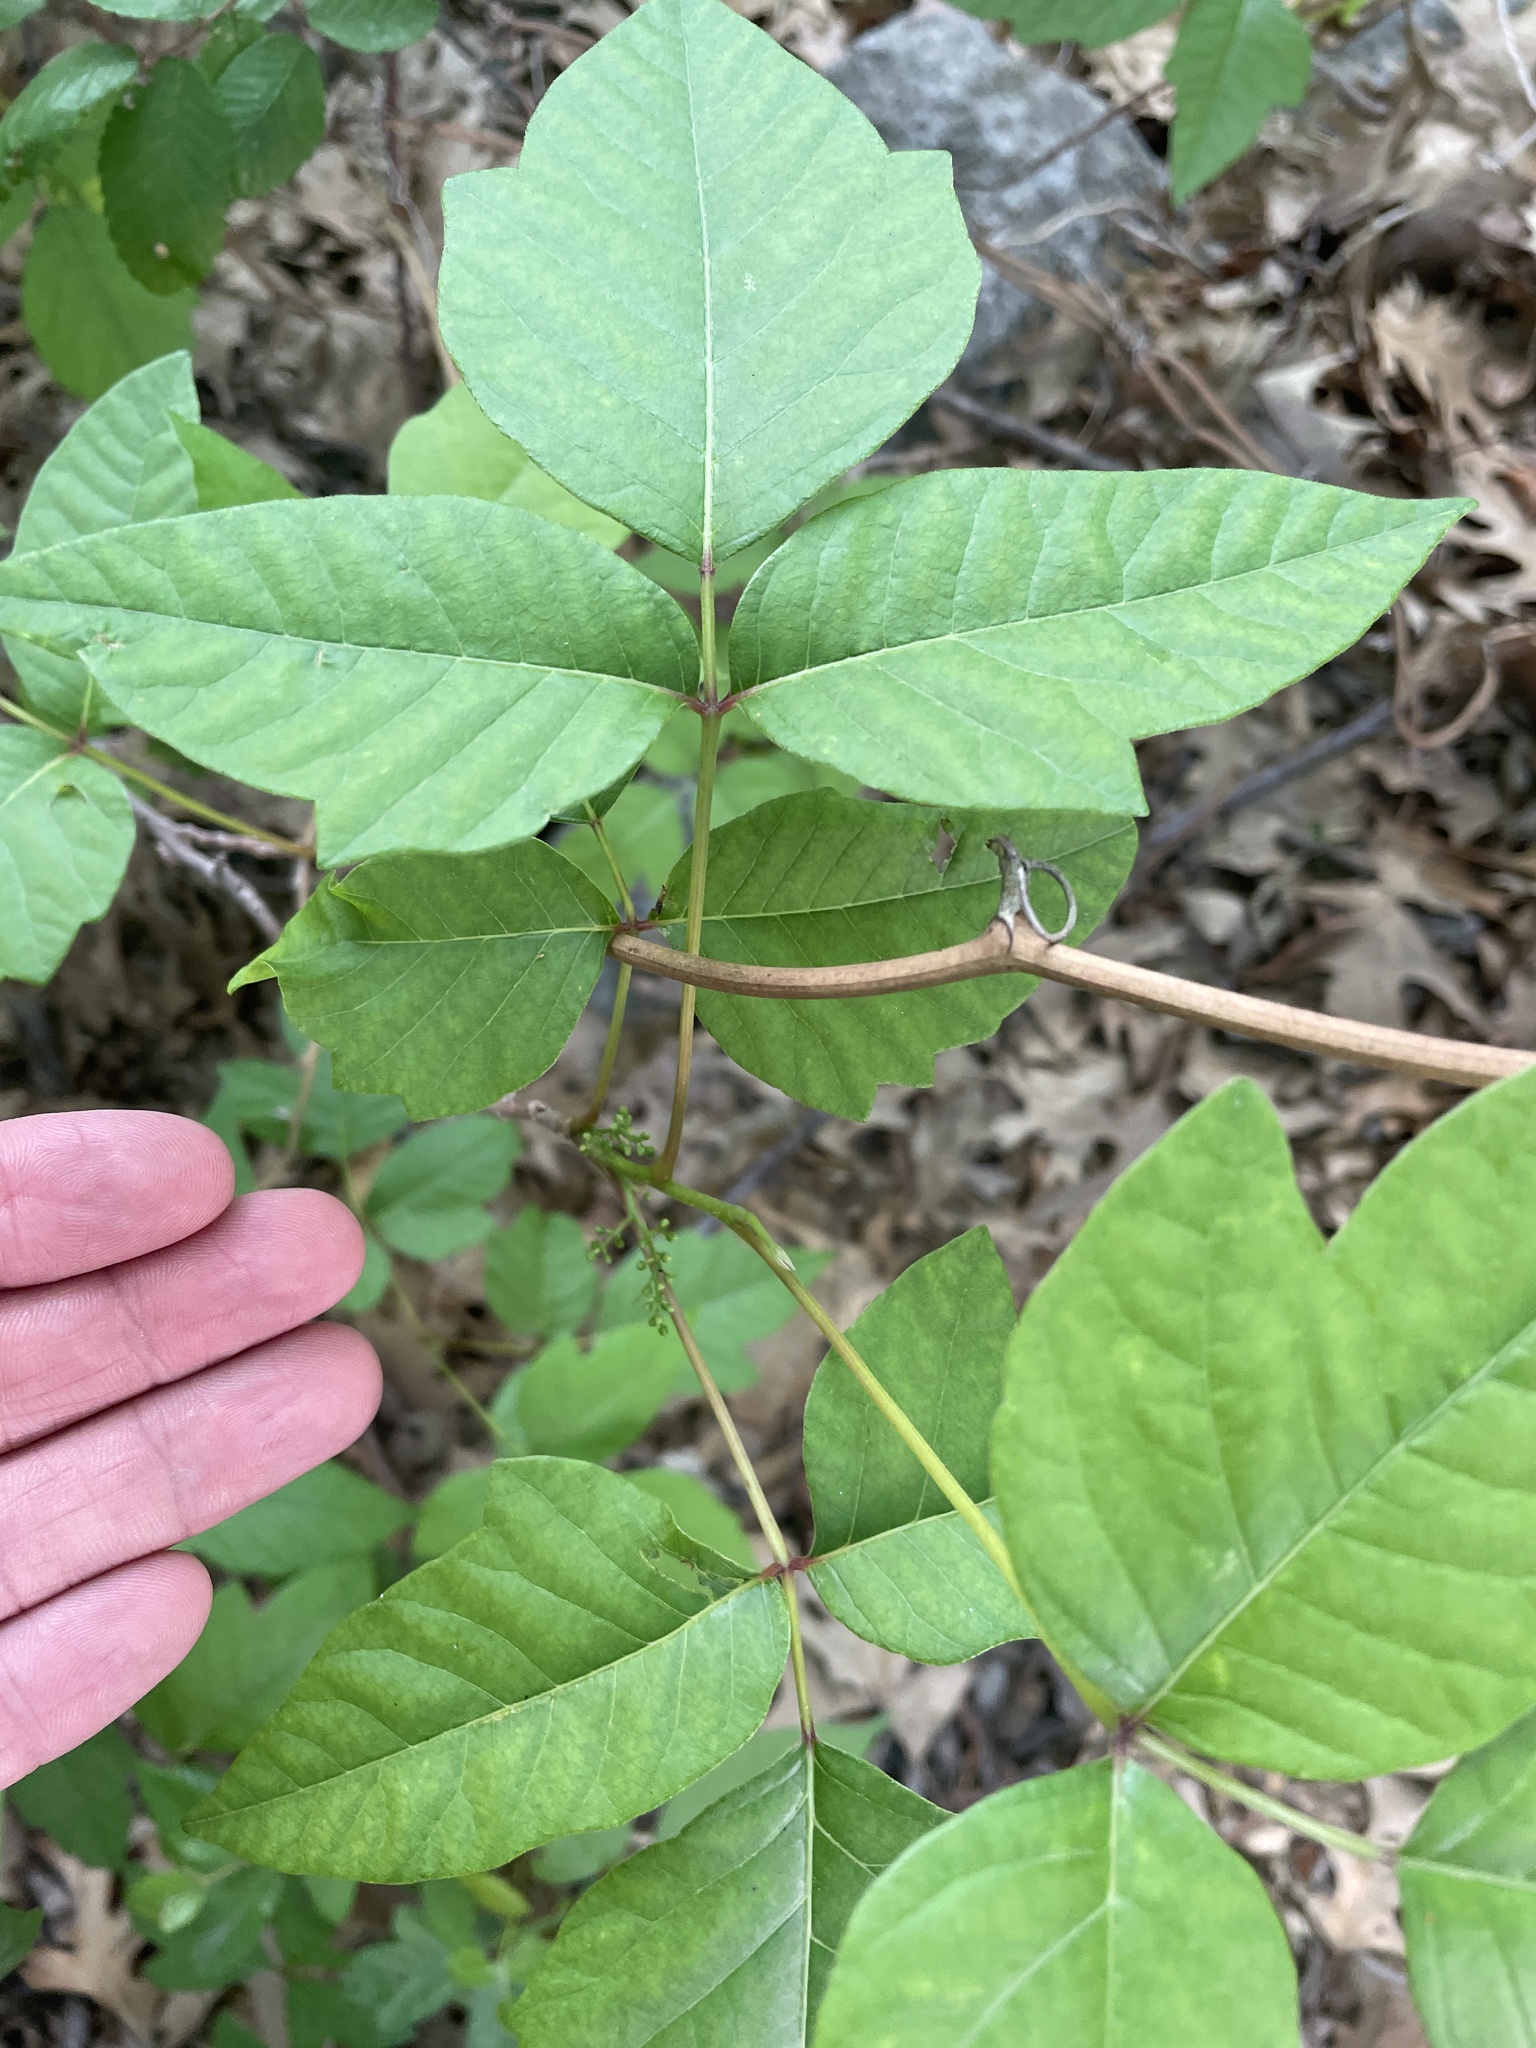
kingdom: Plantae
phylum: Tracheophyta
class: Magnoliopsida
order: Sapindales
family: Anacardiaceae
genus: Toxicodendron
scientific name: Toxicodendron radicans
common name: Poison ivy
